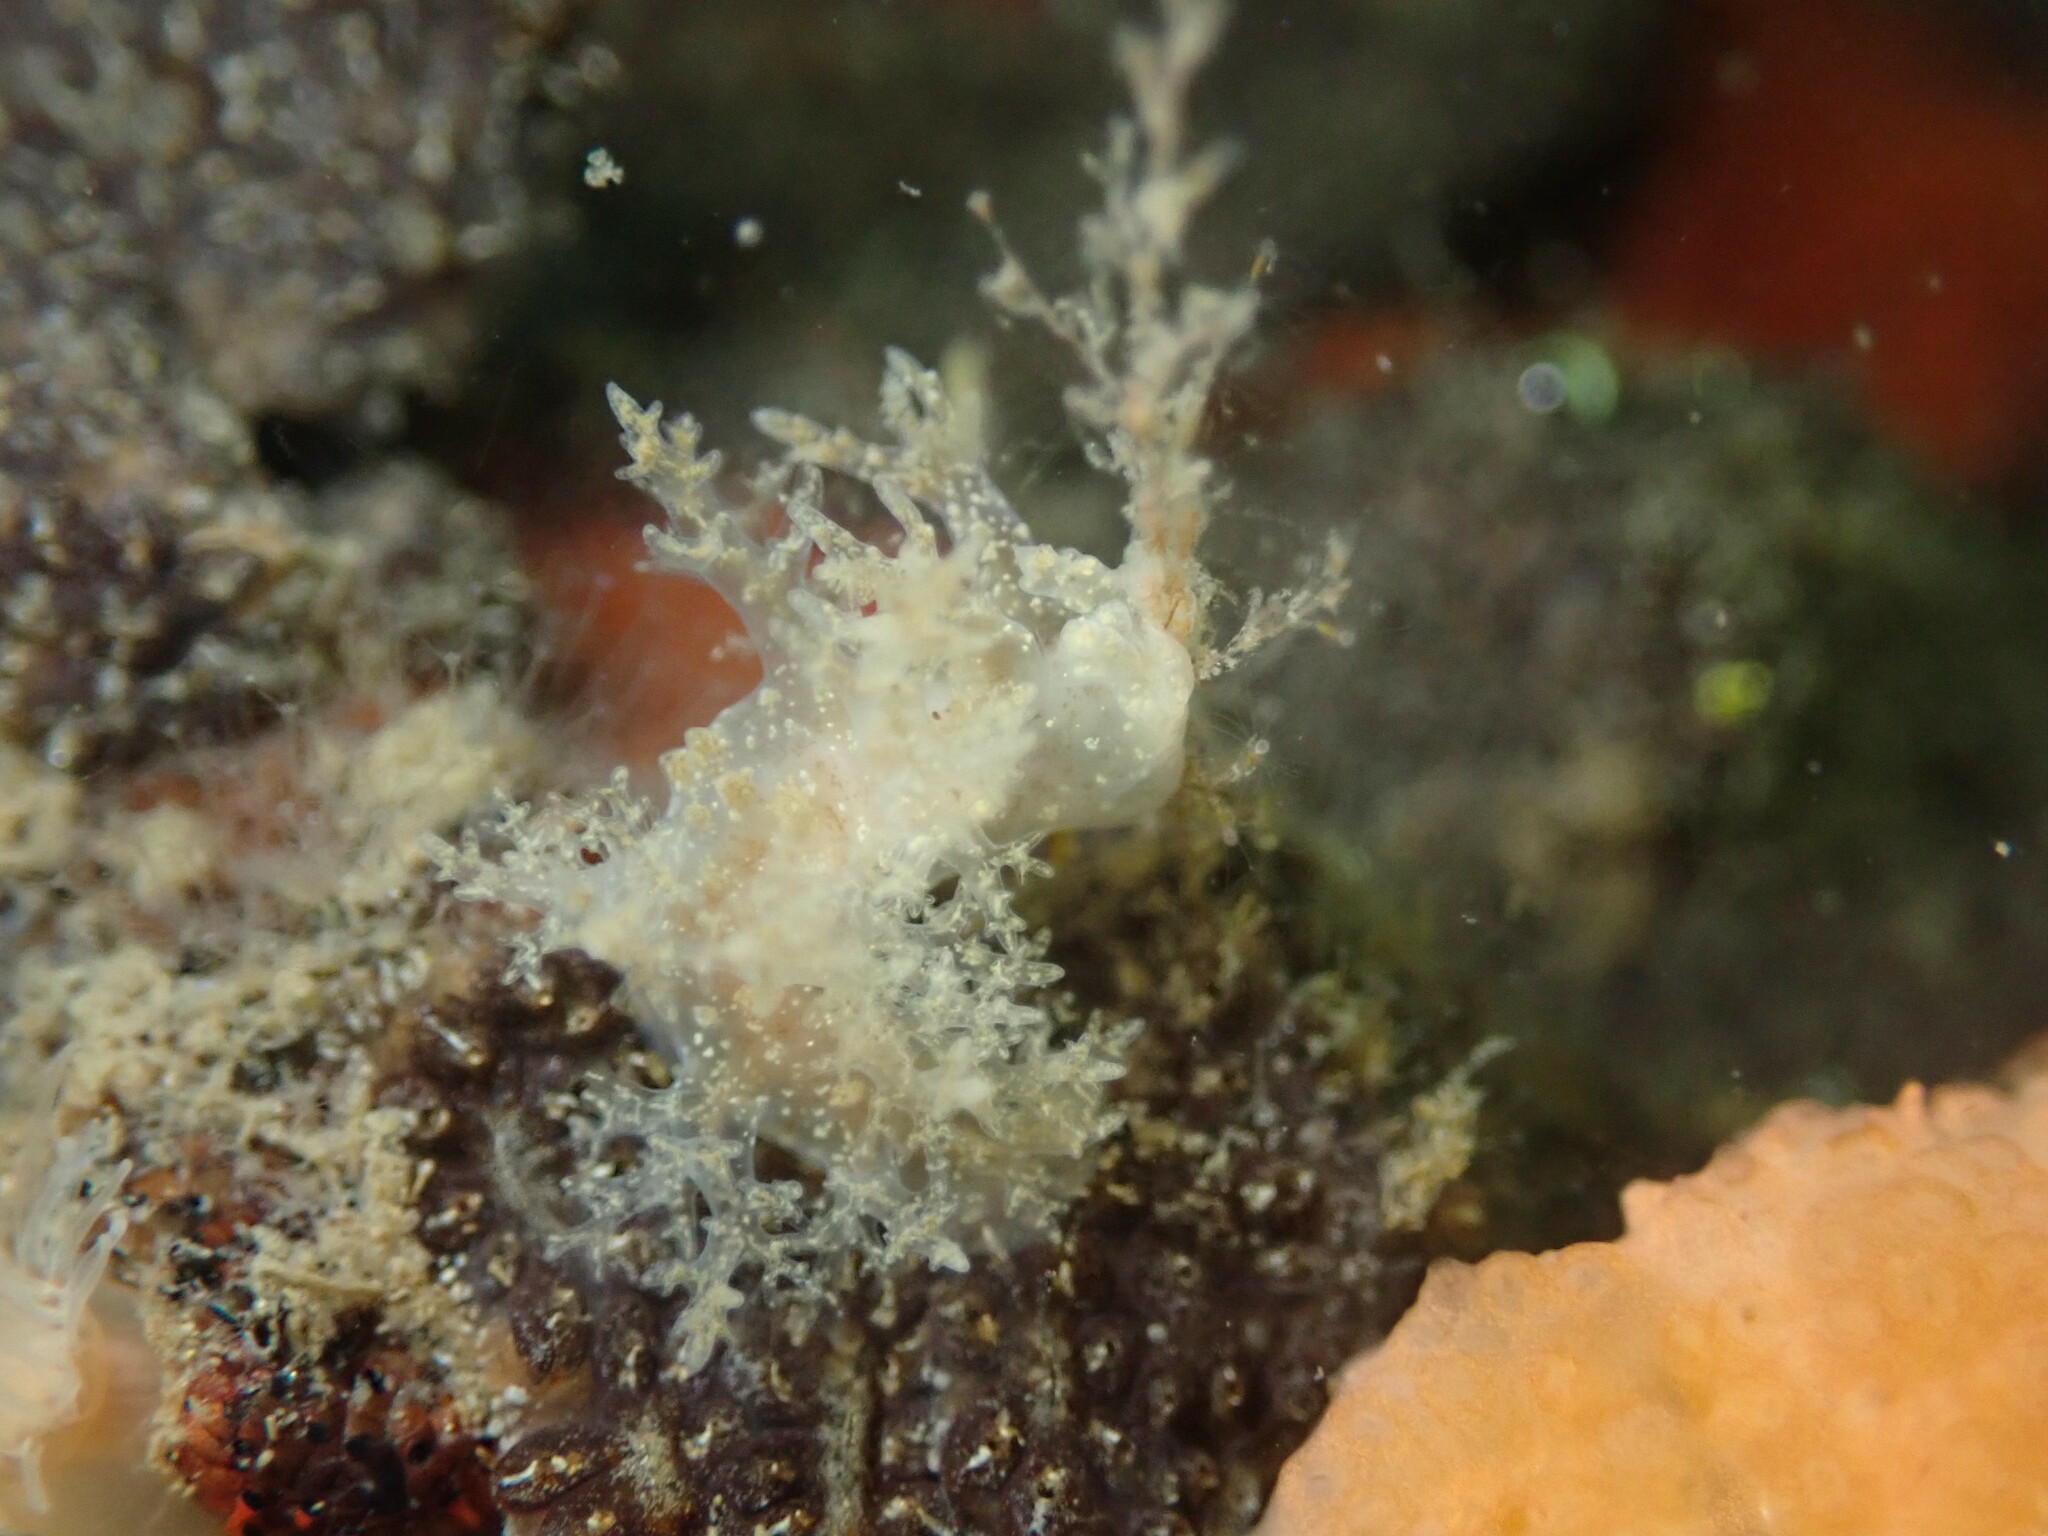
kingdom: Animalia
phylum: Mollusca
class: Gastropoda
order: Nudibranchia
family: Dendronotidae
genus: Dendronotus
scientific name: Dendronotus venustus
